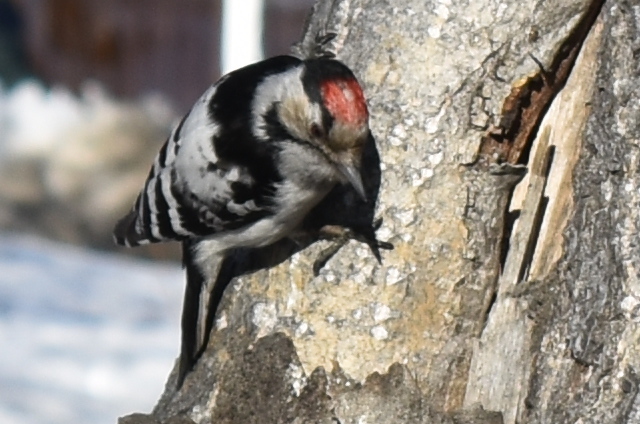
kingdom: Animalia
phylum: Chordata
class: Aves
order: Piciformes
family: Picidae
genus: Dryobates
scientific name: Dryobates minor
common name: Lesser spotted woodpecker
